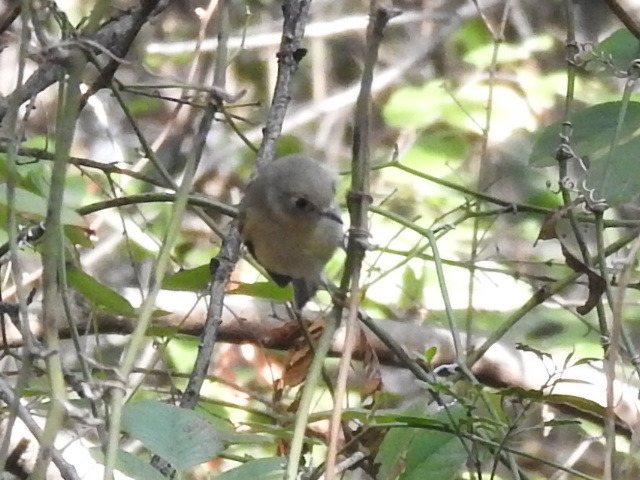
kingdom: Animalia
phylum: Chordata
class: Aves
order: Passeriformes
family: Regulidae
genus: Regulus
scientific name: Regulus calendula
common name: Ruby-crowned kinglet
